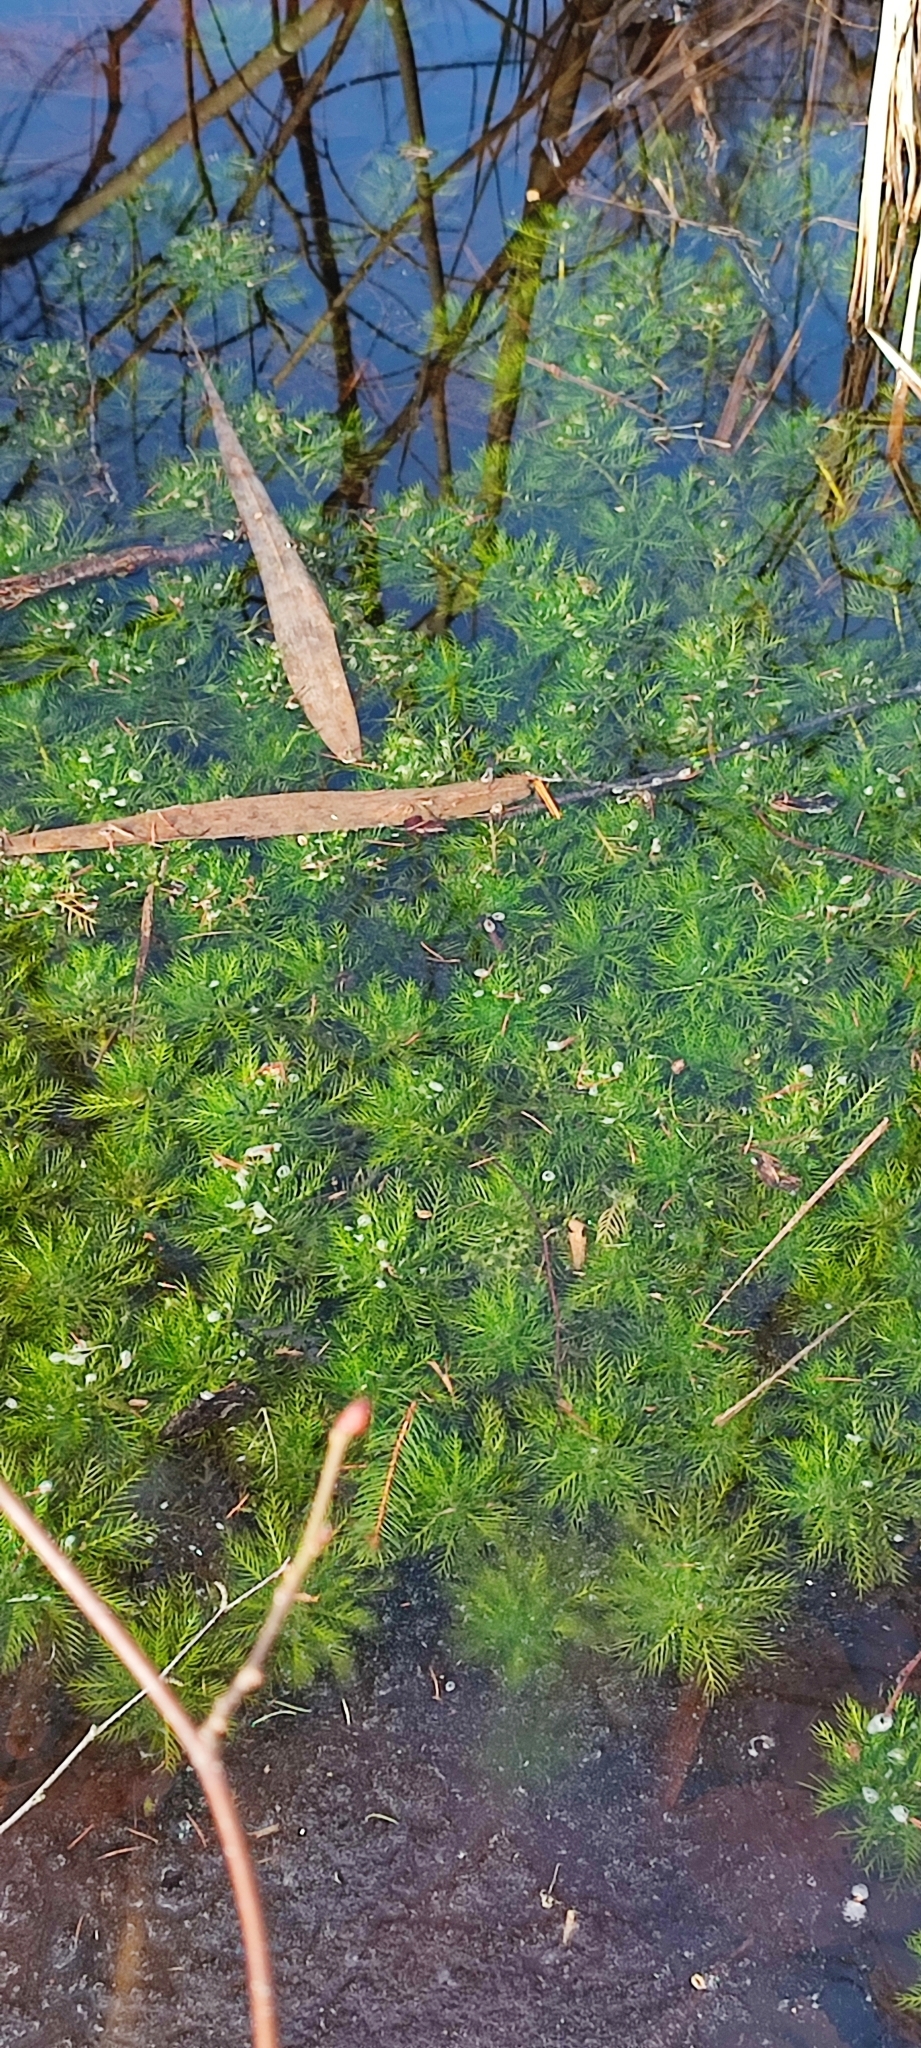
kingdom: Plantae
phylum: Tracheophyta
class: Magnoliopsida
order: Ericales
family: Primulaceae
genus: Hottonia
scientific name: Hottonia palustris
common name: Water-violet
